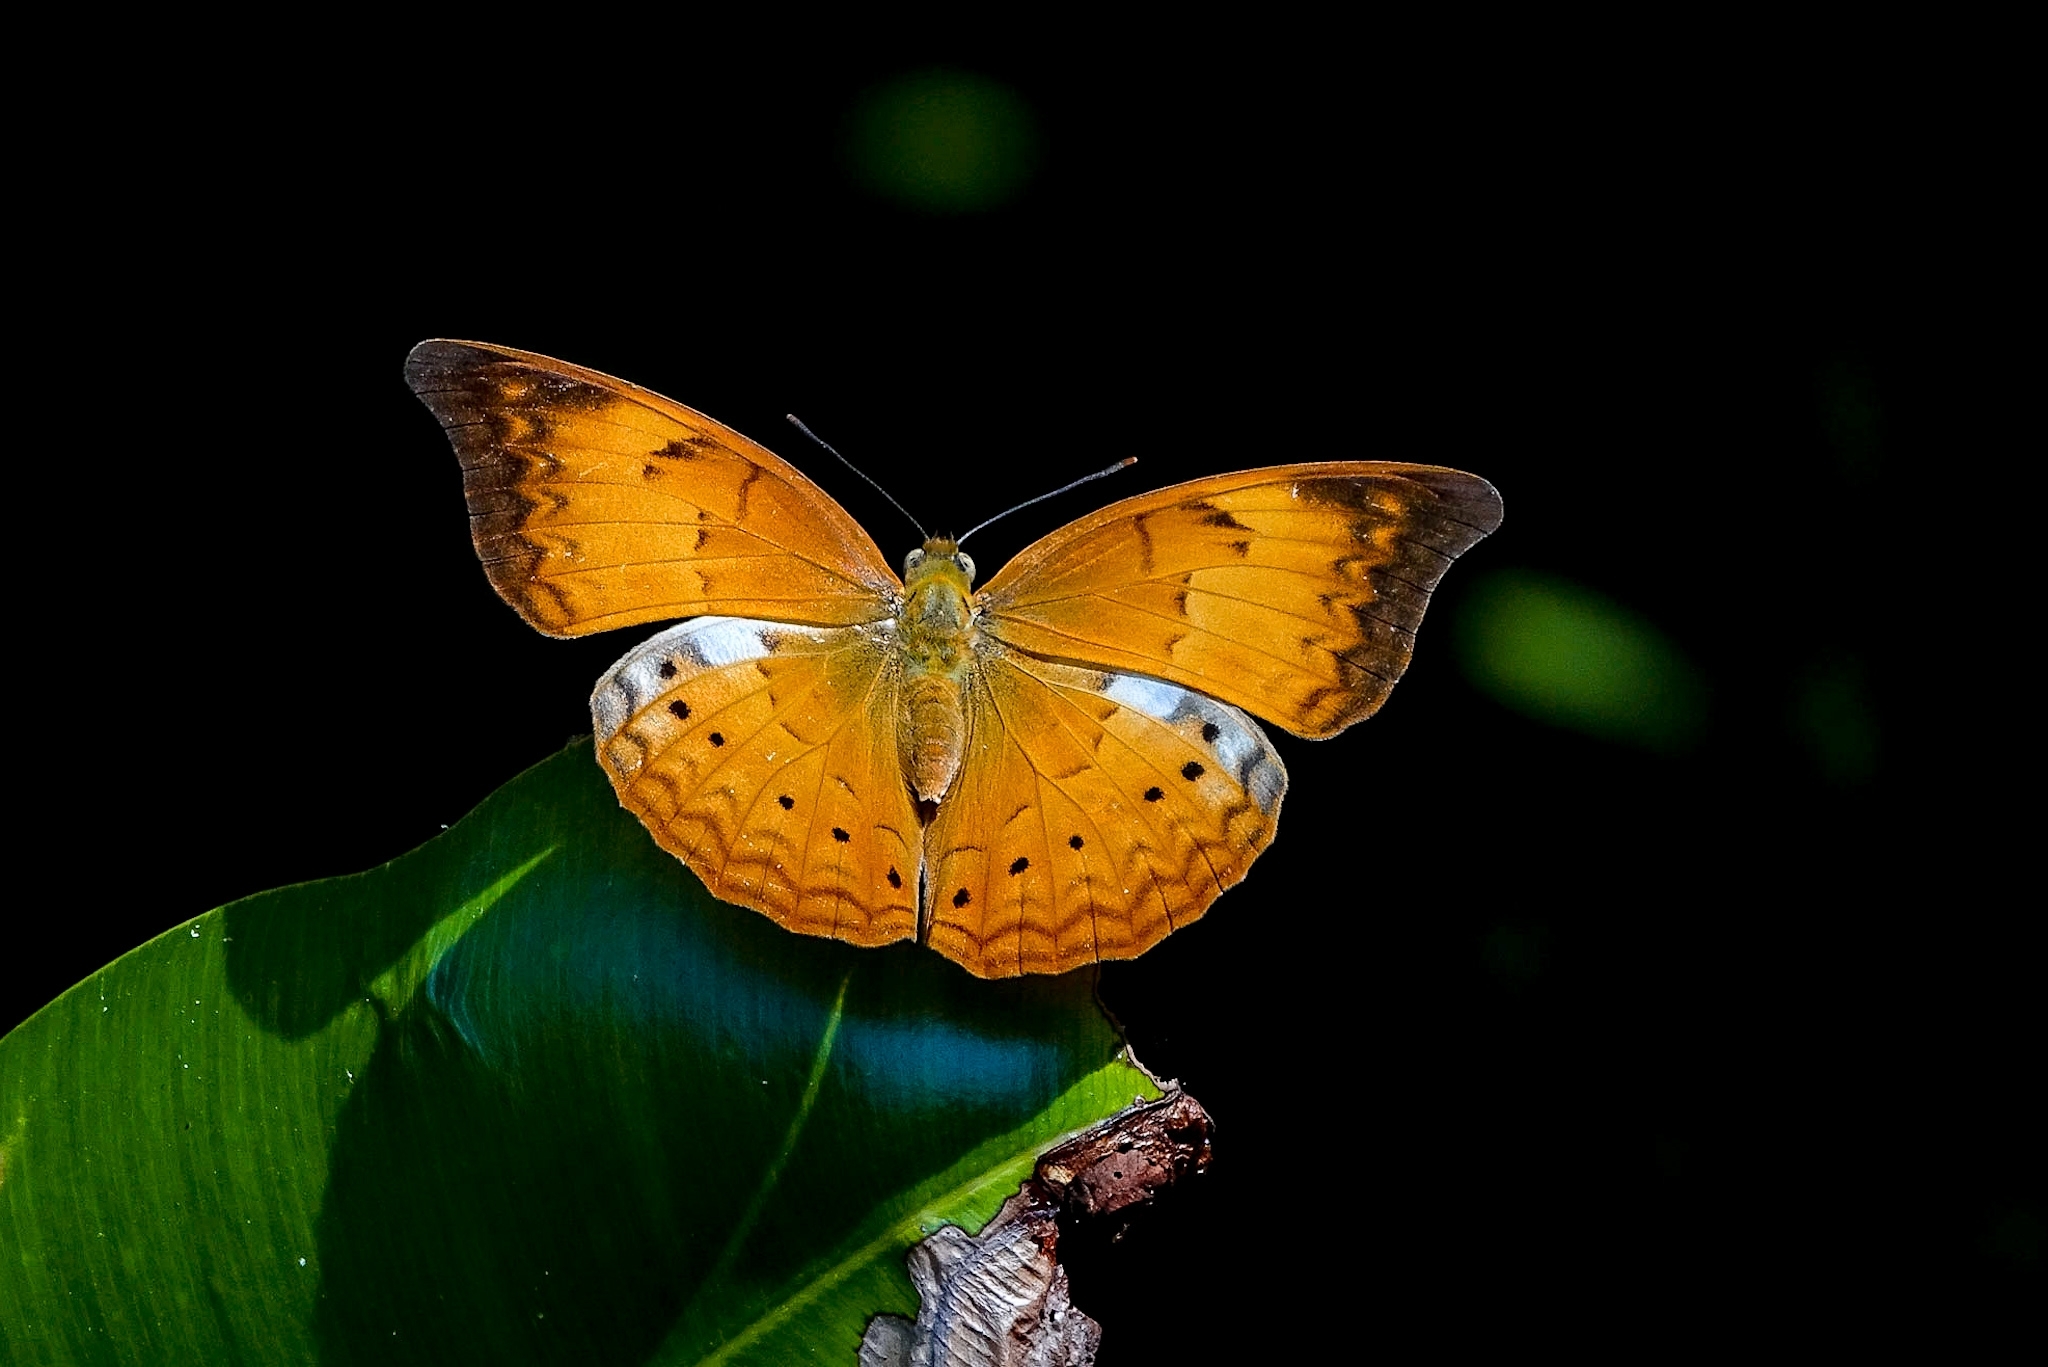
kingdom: Animalia
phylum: Arthropoda
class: Insecta
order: Lepidoptera
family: Nymphalidae
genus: Cirrochroa
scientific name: Cirrochroa thais
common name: Tamil yeoman
